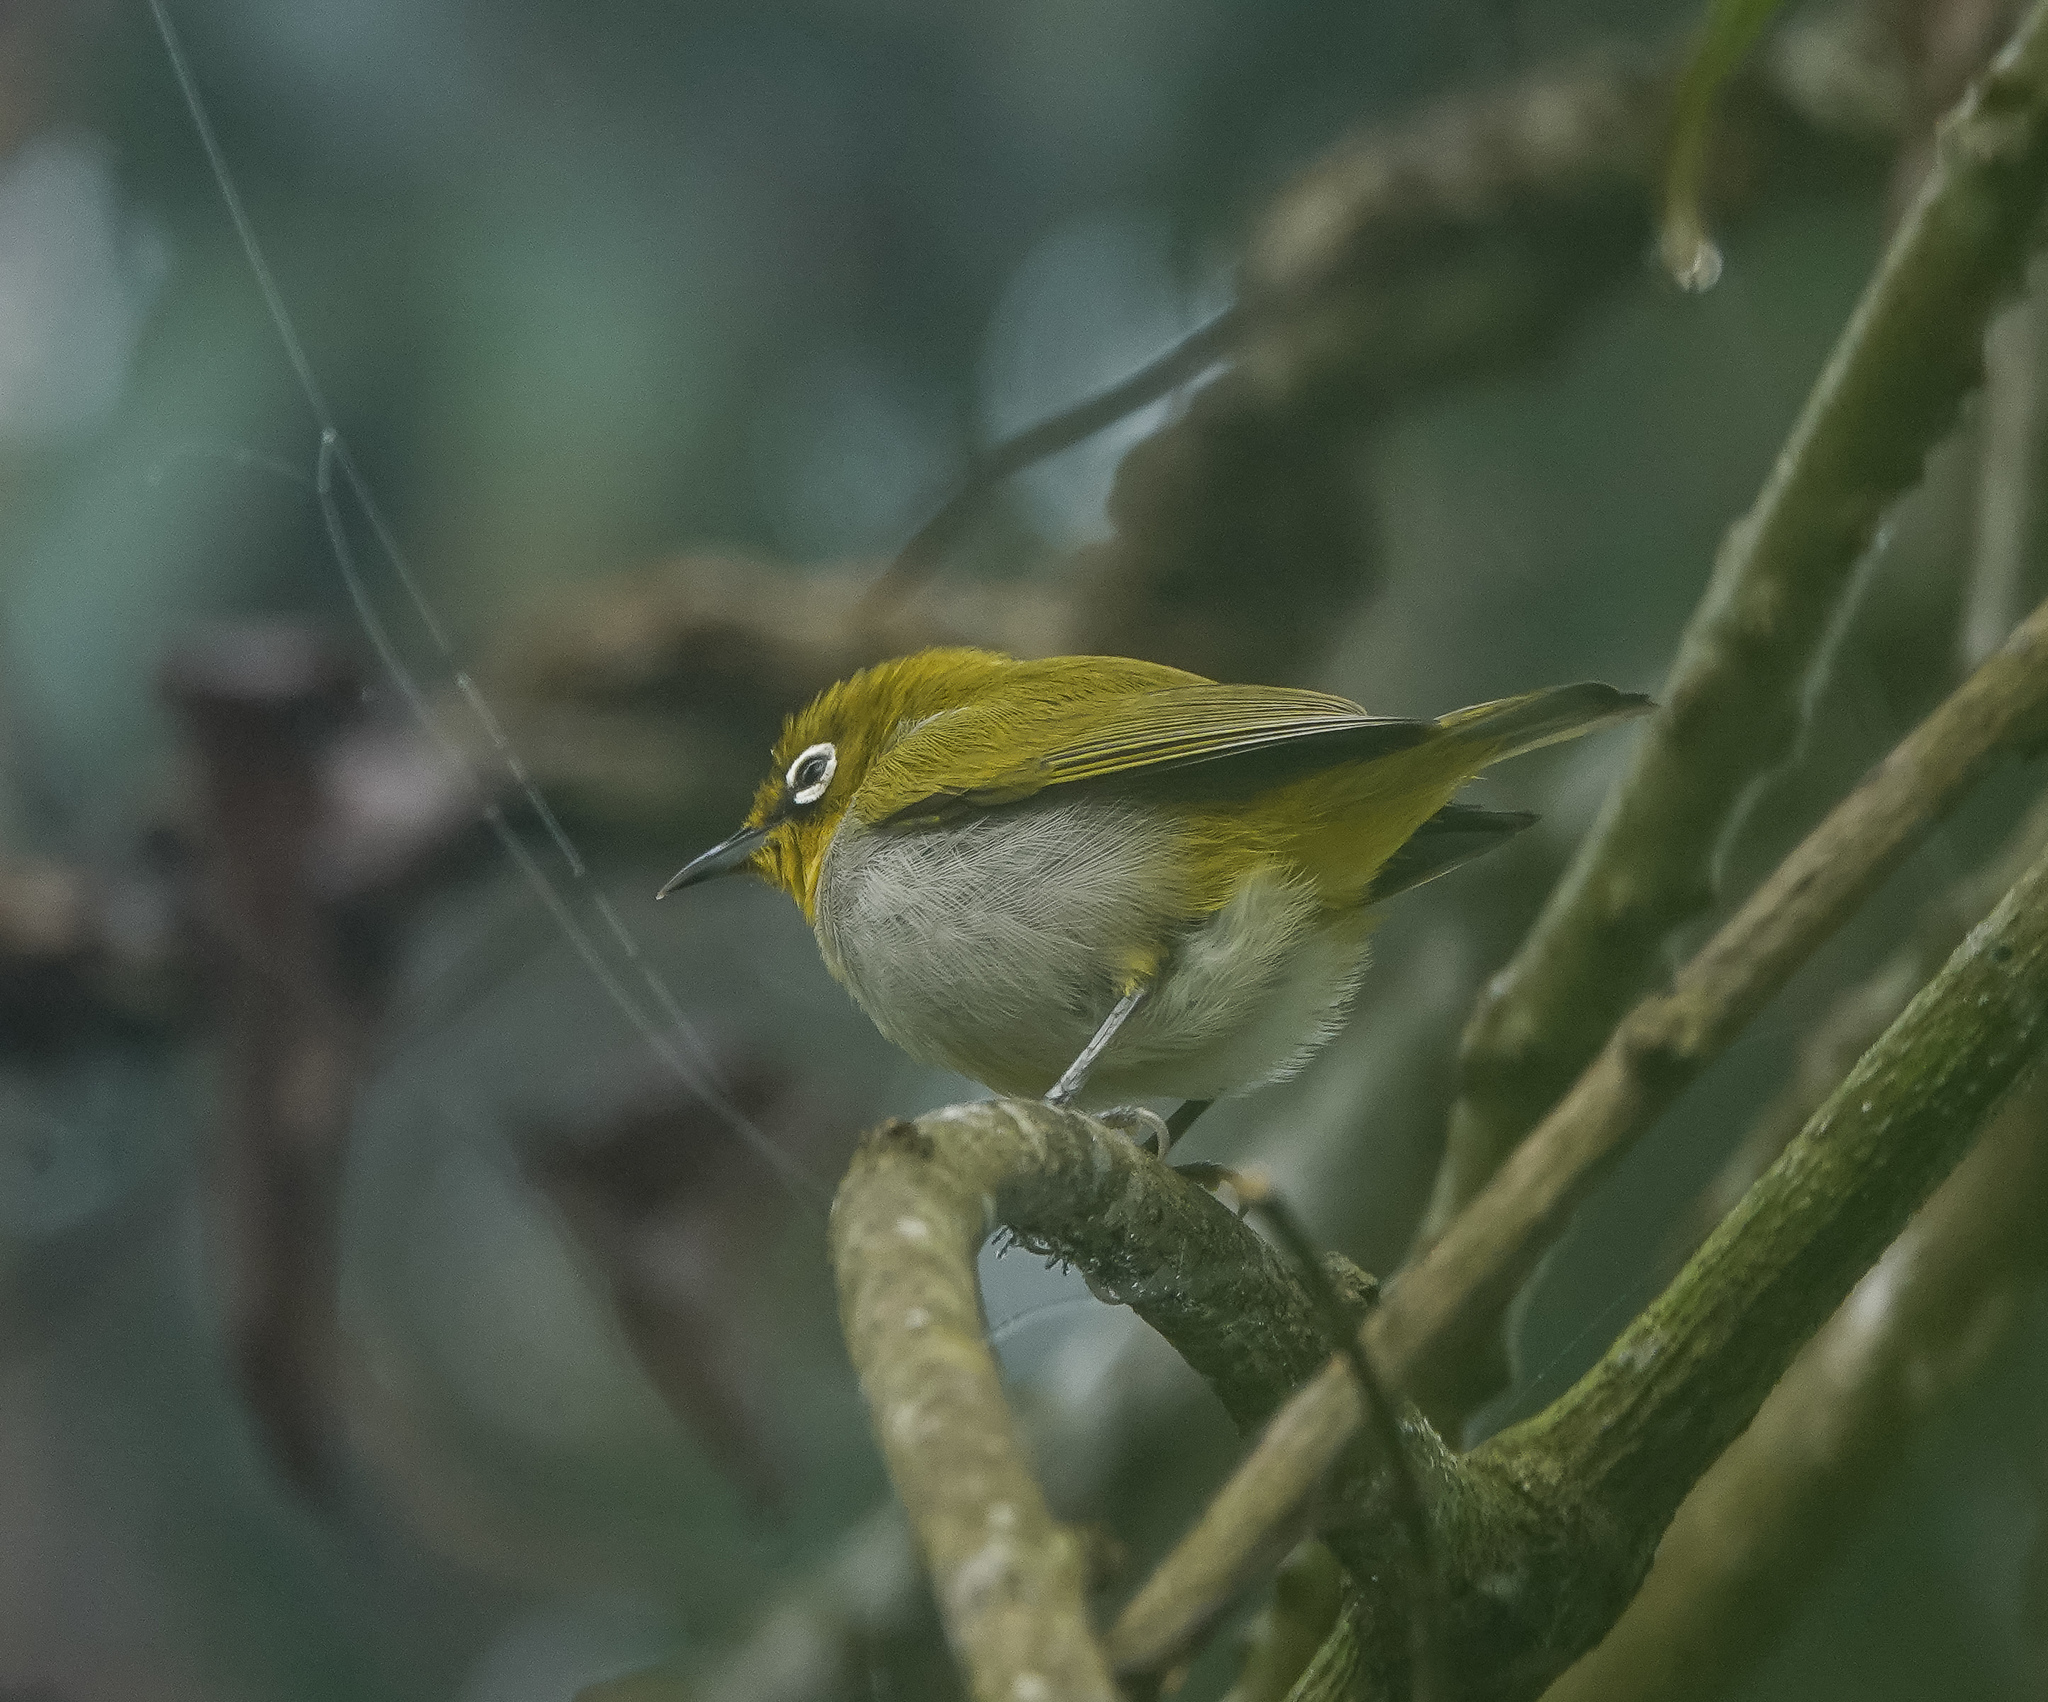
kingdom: Animalia
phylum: Chordata
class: Aves
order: Passeriformes
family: Zosteropidae
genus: Zosterops
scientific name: Zosterops palpebrosus
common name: Oriental white-eye
